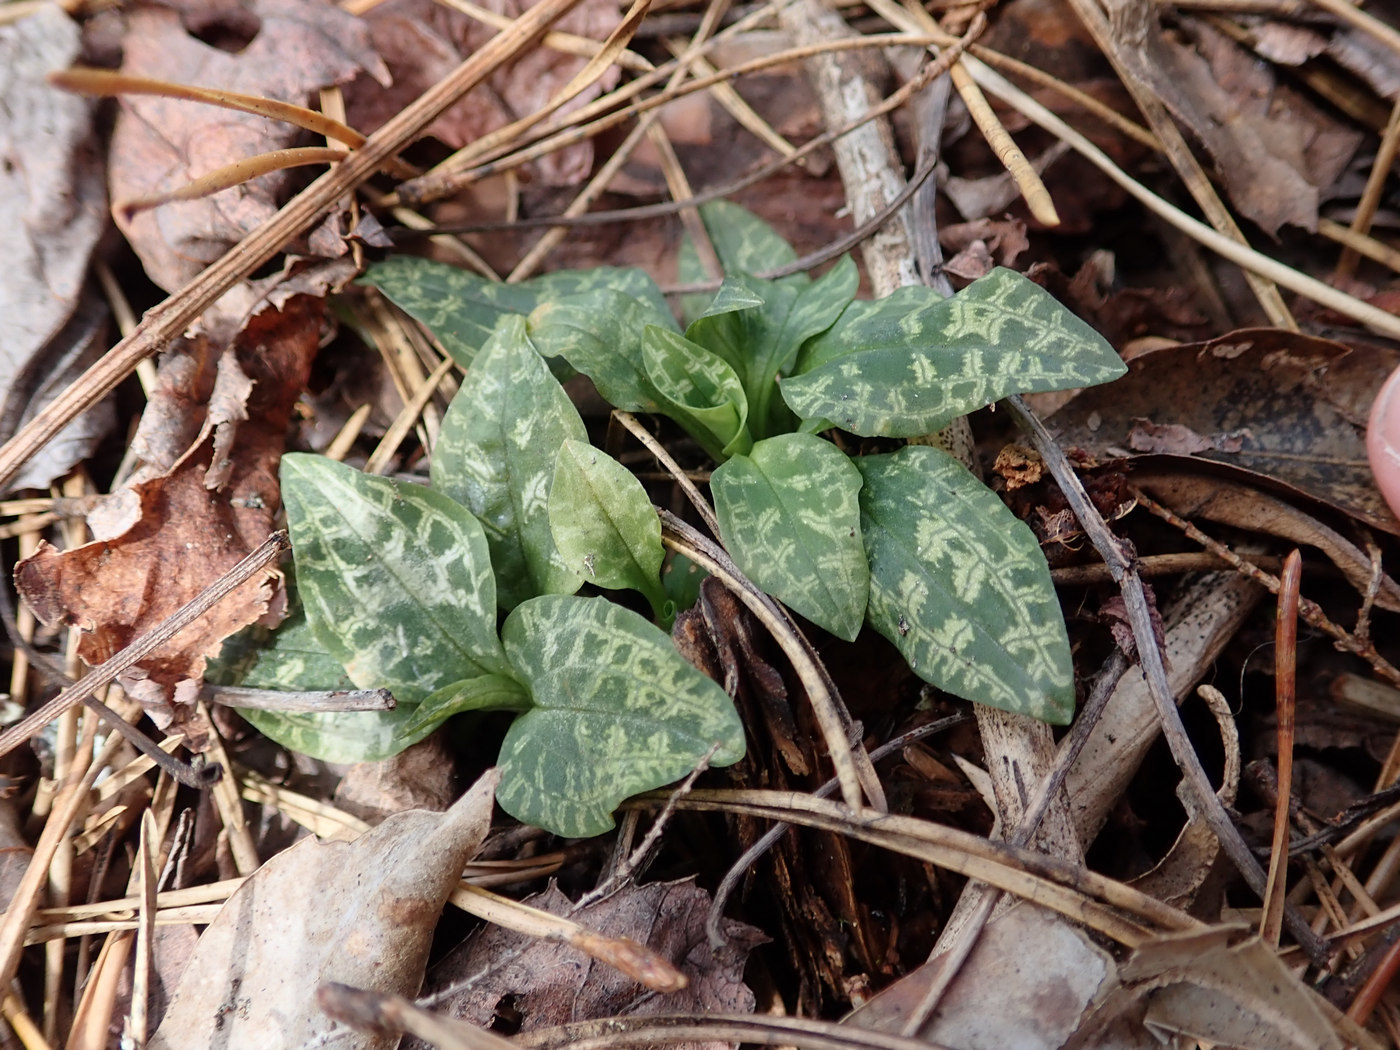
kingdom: Plantae
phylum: Tracheophyta
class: Liliopsida
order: Asparagales
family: Orchidaceae
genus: Goodyera
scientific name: Goodyera repens
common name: Creeping lady's-tresses
